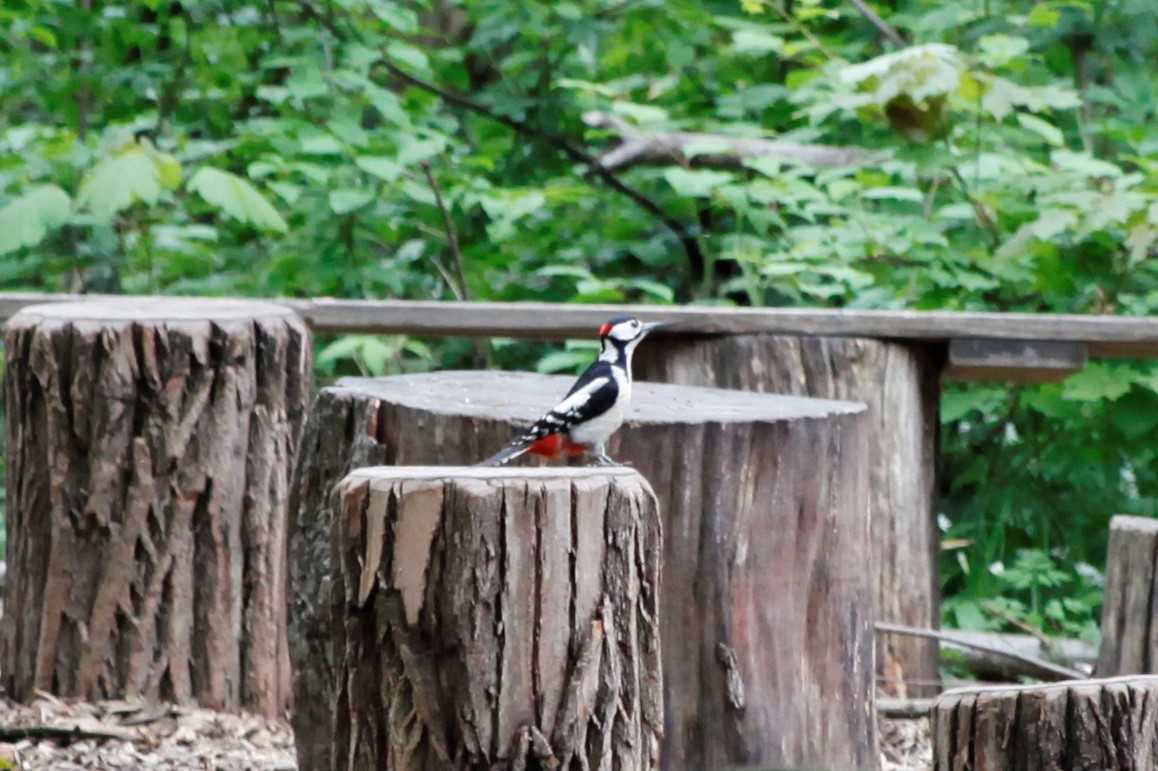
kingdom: Animalia
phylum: Chordata
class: Aves
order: Piciformes
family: Picidae
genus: Dendrocopos
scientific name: Dendrocopos major
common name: Great spotted woodpecker
